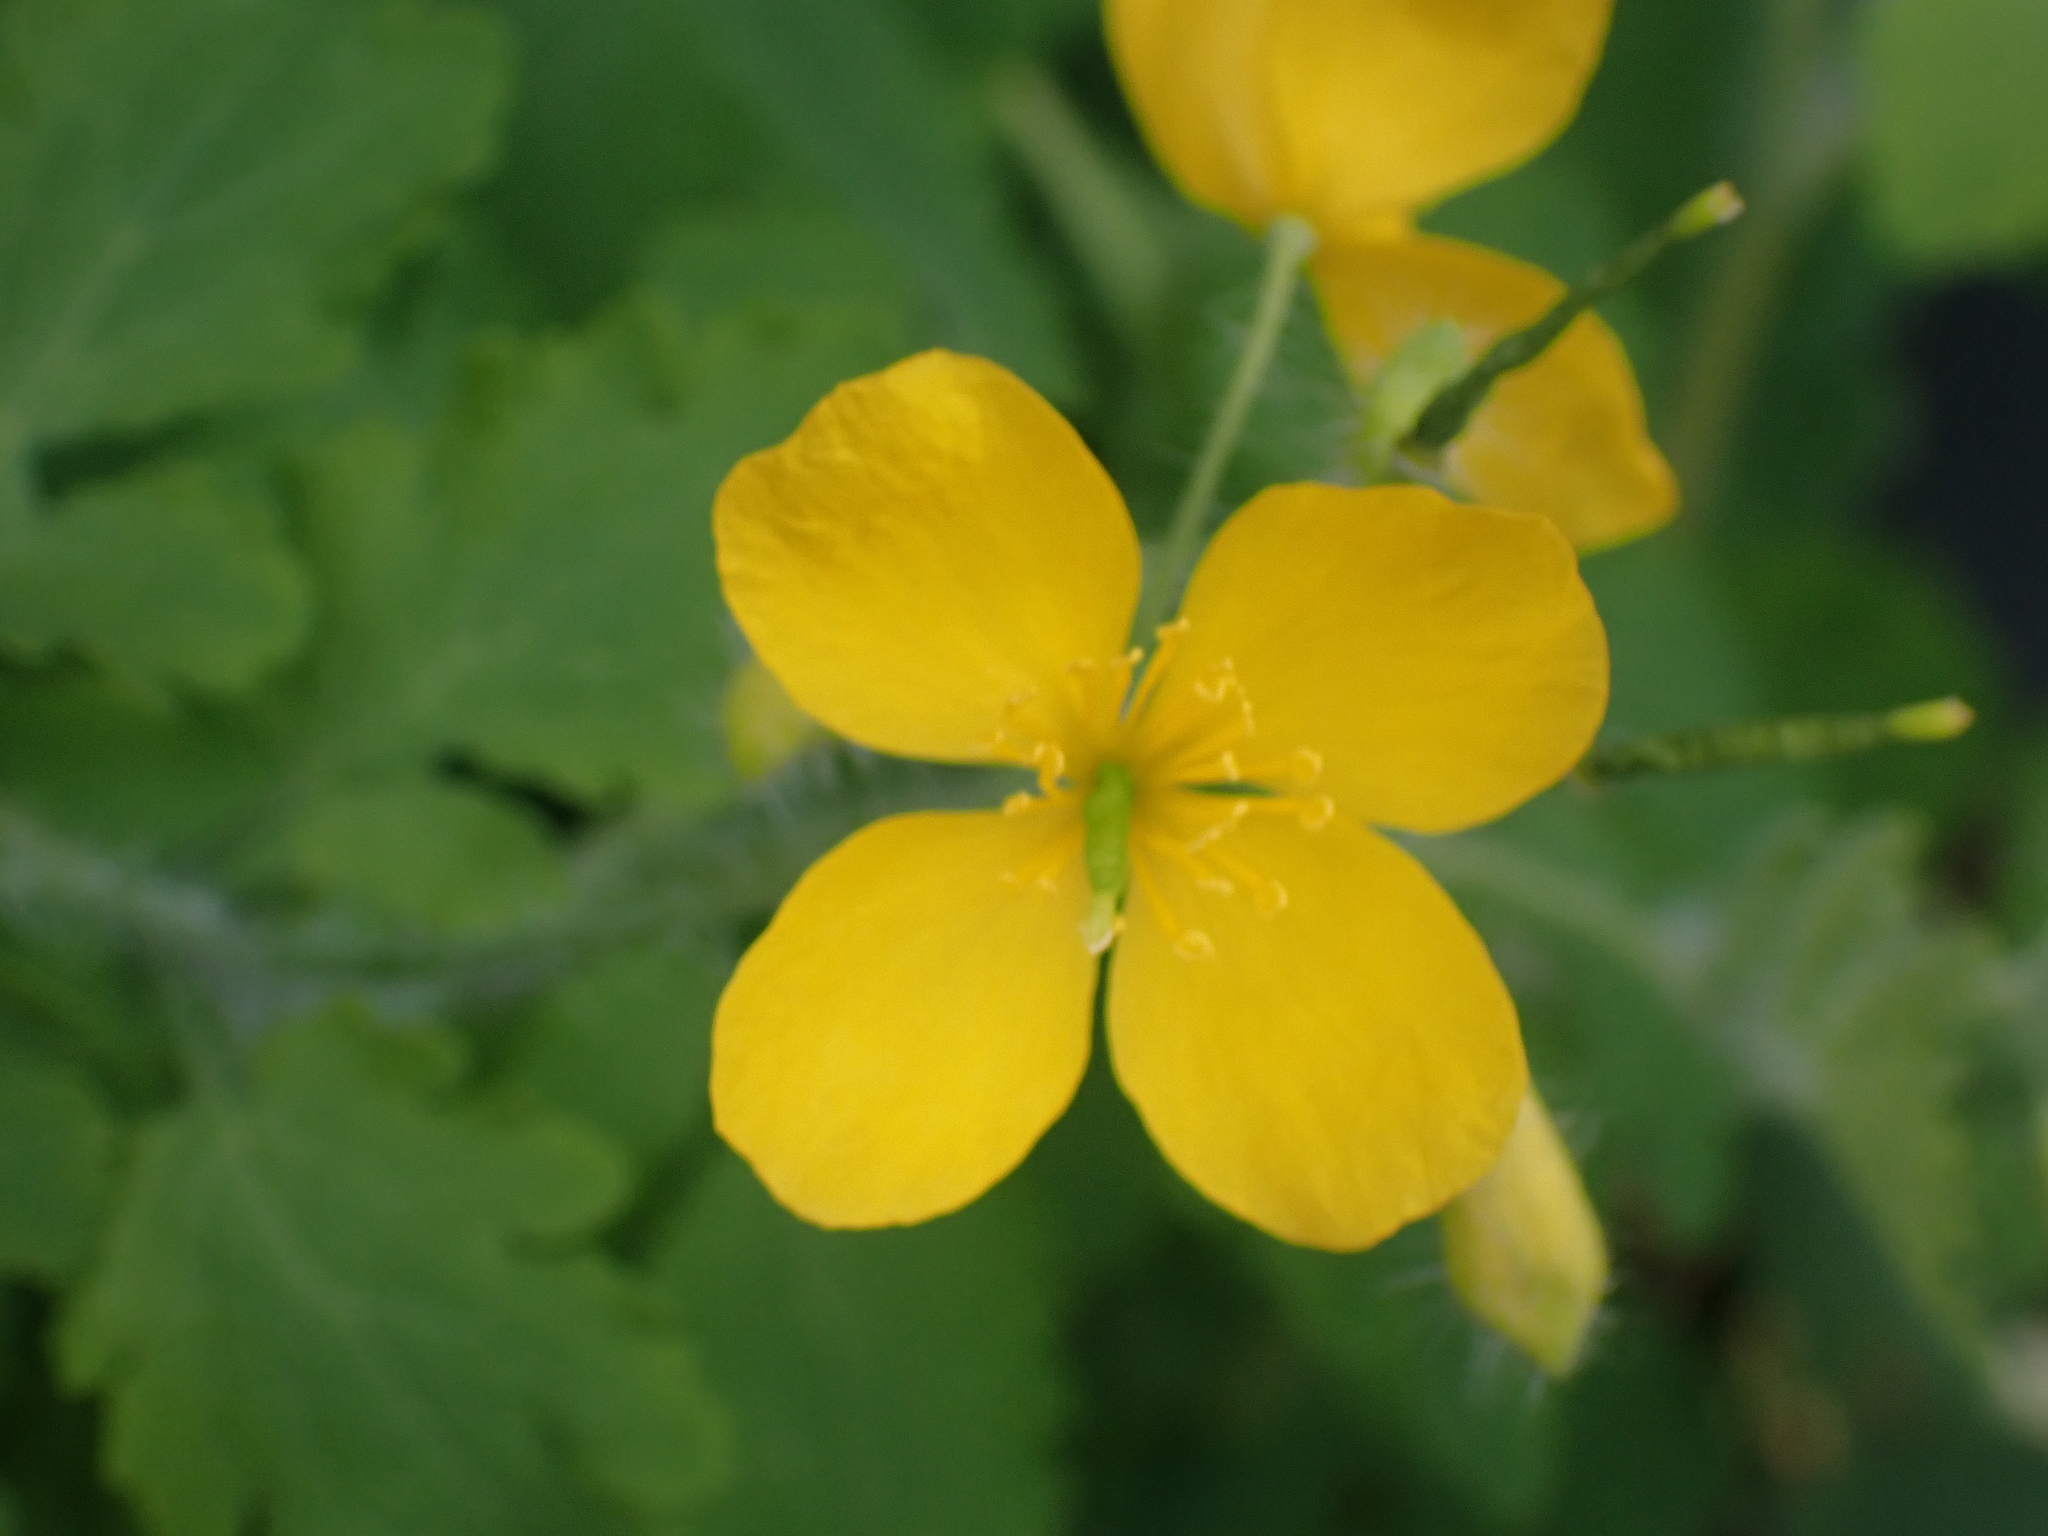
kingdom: Plantae
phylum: Tracheophyta
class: Magnoliopsida
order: Ranunculales
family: Papaveraceae
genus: Chelidonium
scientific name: Chelidonium majus
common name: Greater celandine
